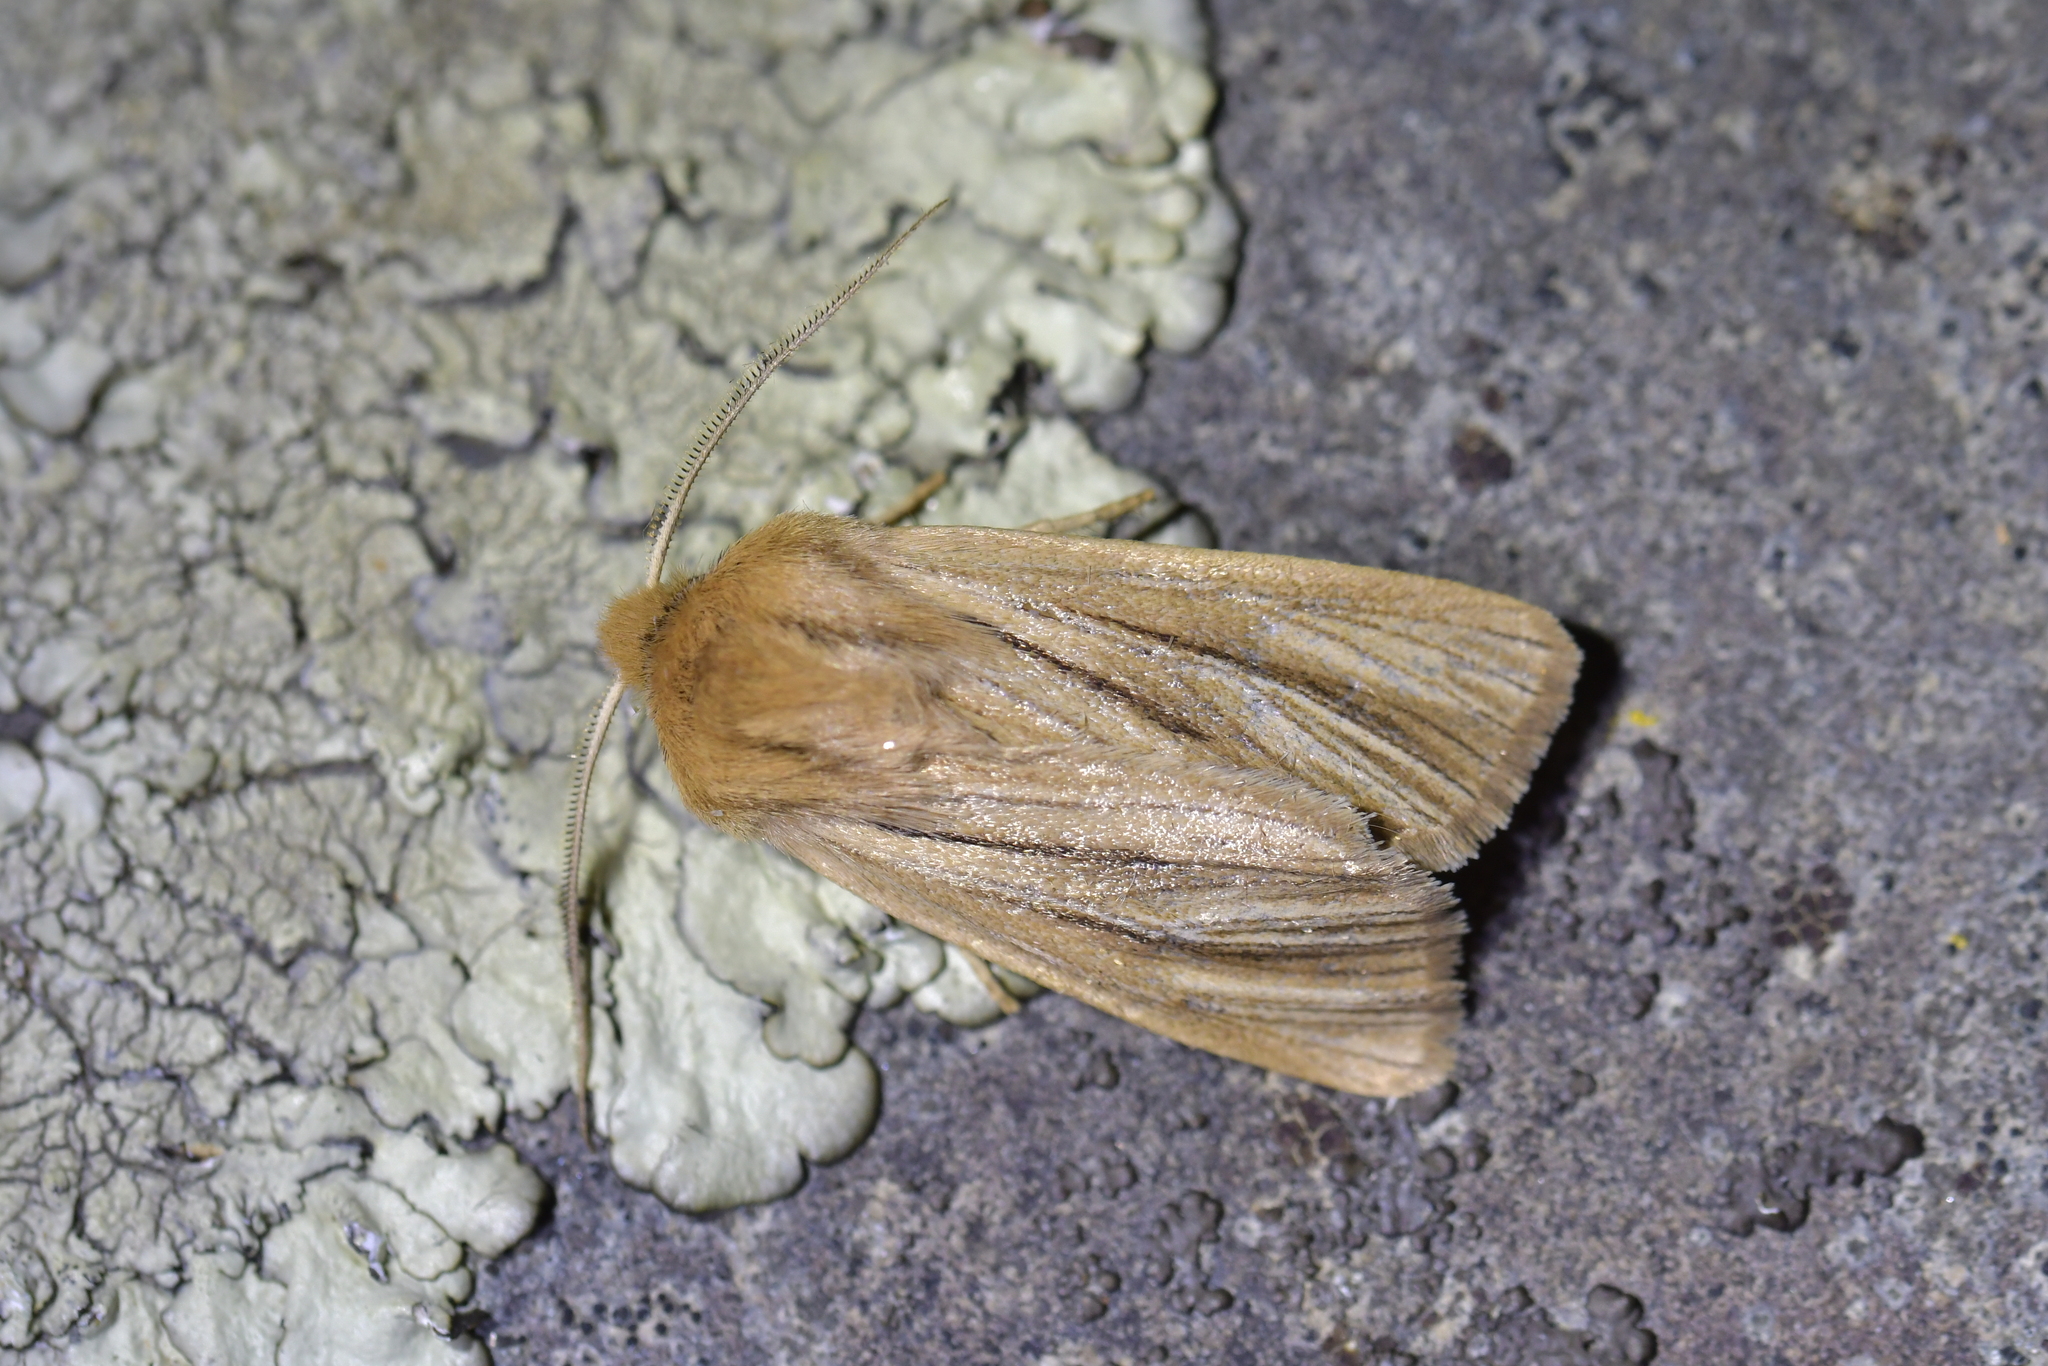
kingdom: Animalia
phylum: Arthropoda
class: Insecta
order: Lepidoptera
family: Noctuidae
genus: Ichneutica
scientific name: Ichneutica
